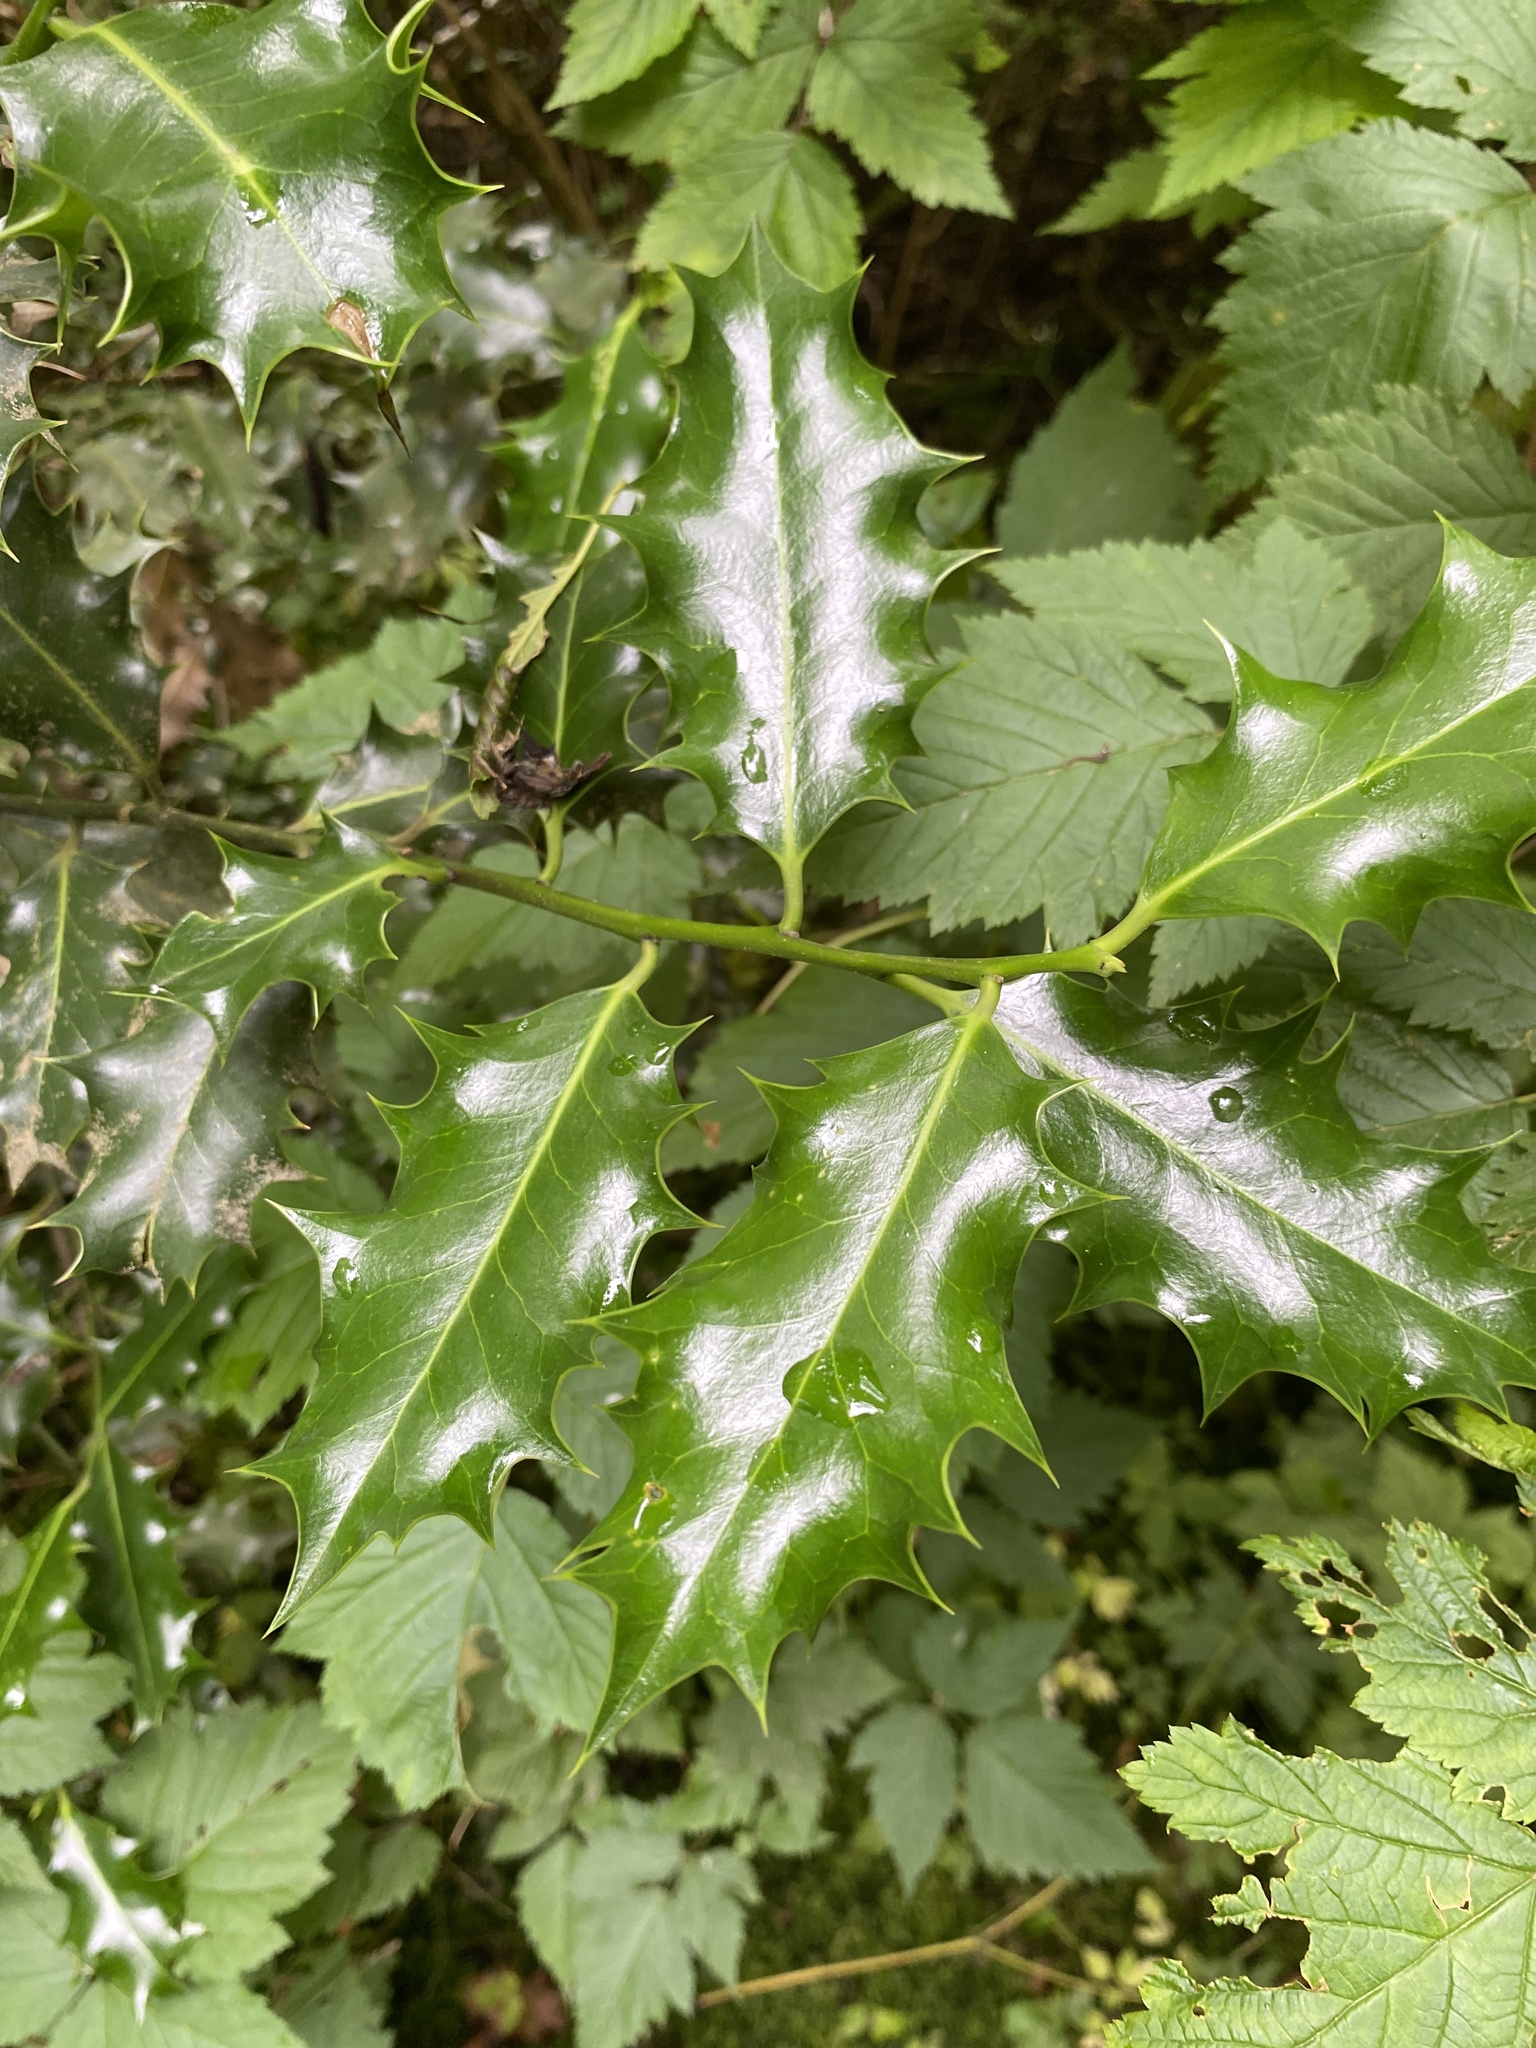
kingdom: Plantae
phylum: Tracheophyta
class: Magnoliopsida
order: Aquifoliales
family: Aquifoliaceae
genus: Ilex
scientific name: Ilex aquifolium
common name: English holly
